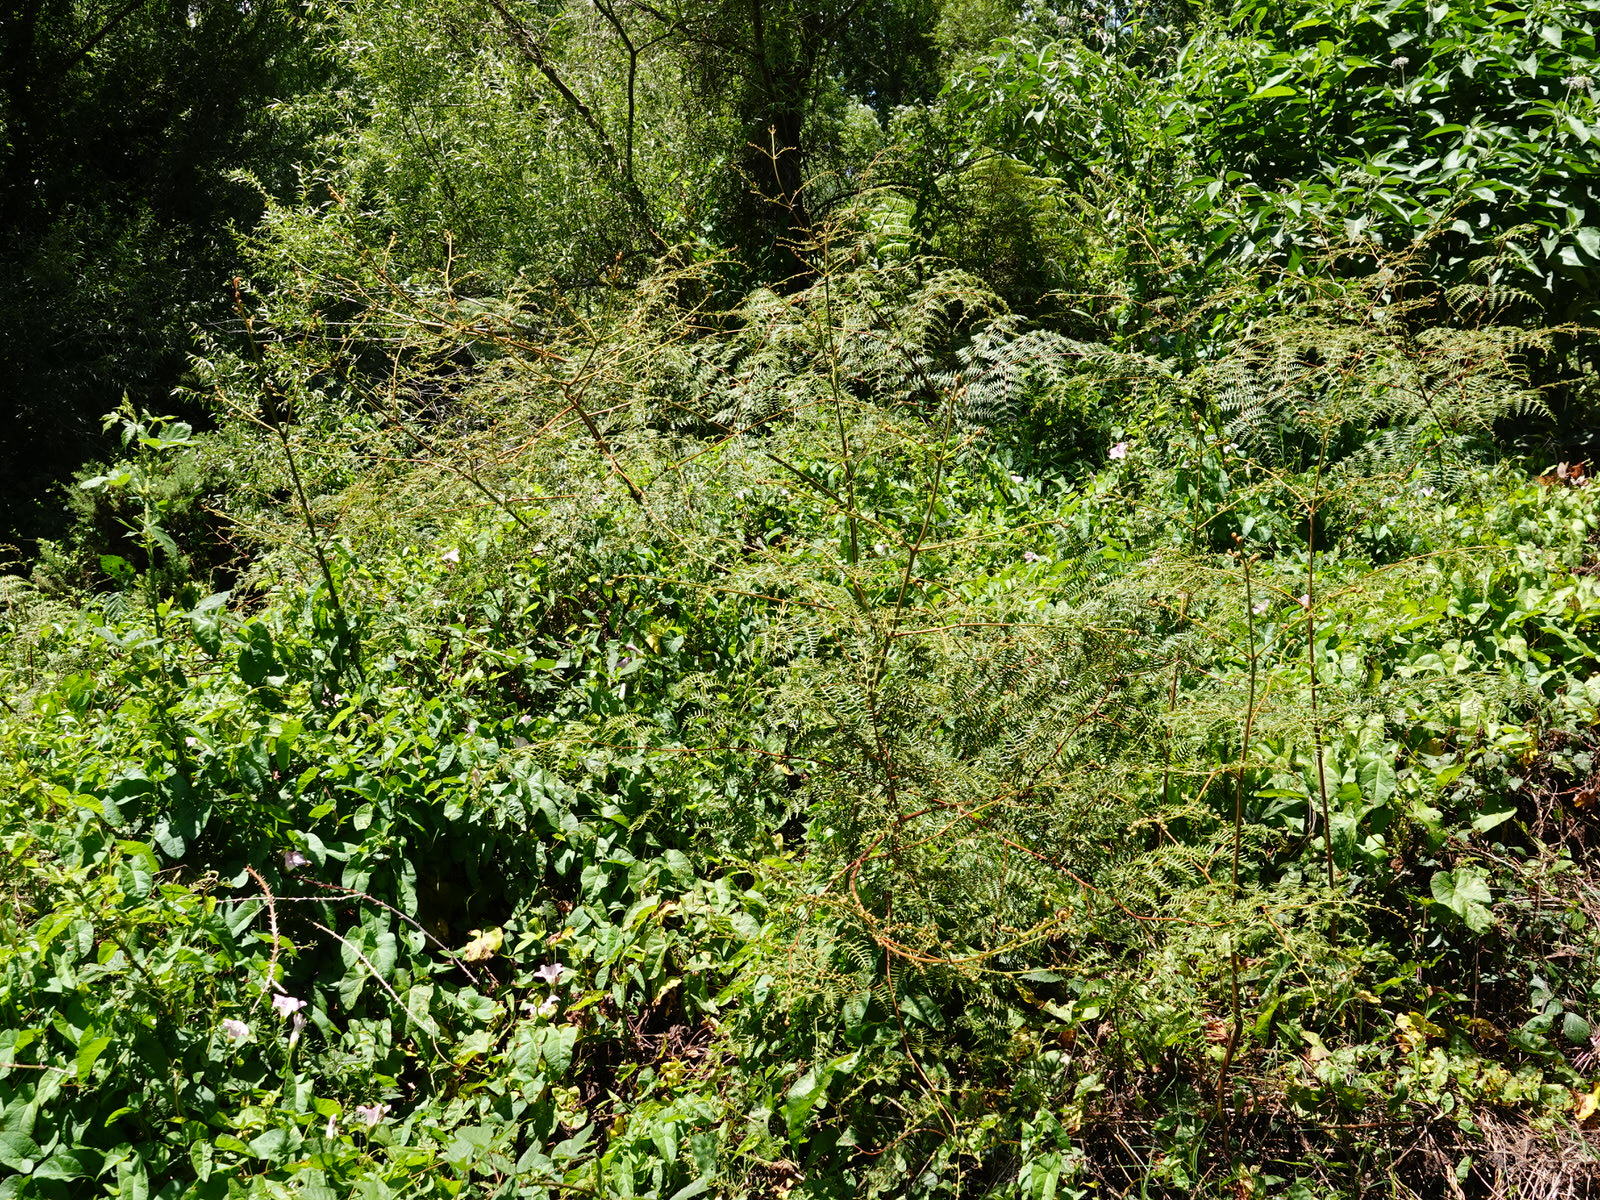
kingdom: Plantae
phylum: Tracheophyta
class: Polypodiopsida
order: Polypodiales
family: Dennstaedtiaceae
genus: Pteridium
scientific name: Pteridium esculentum
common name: Bracken fern
